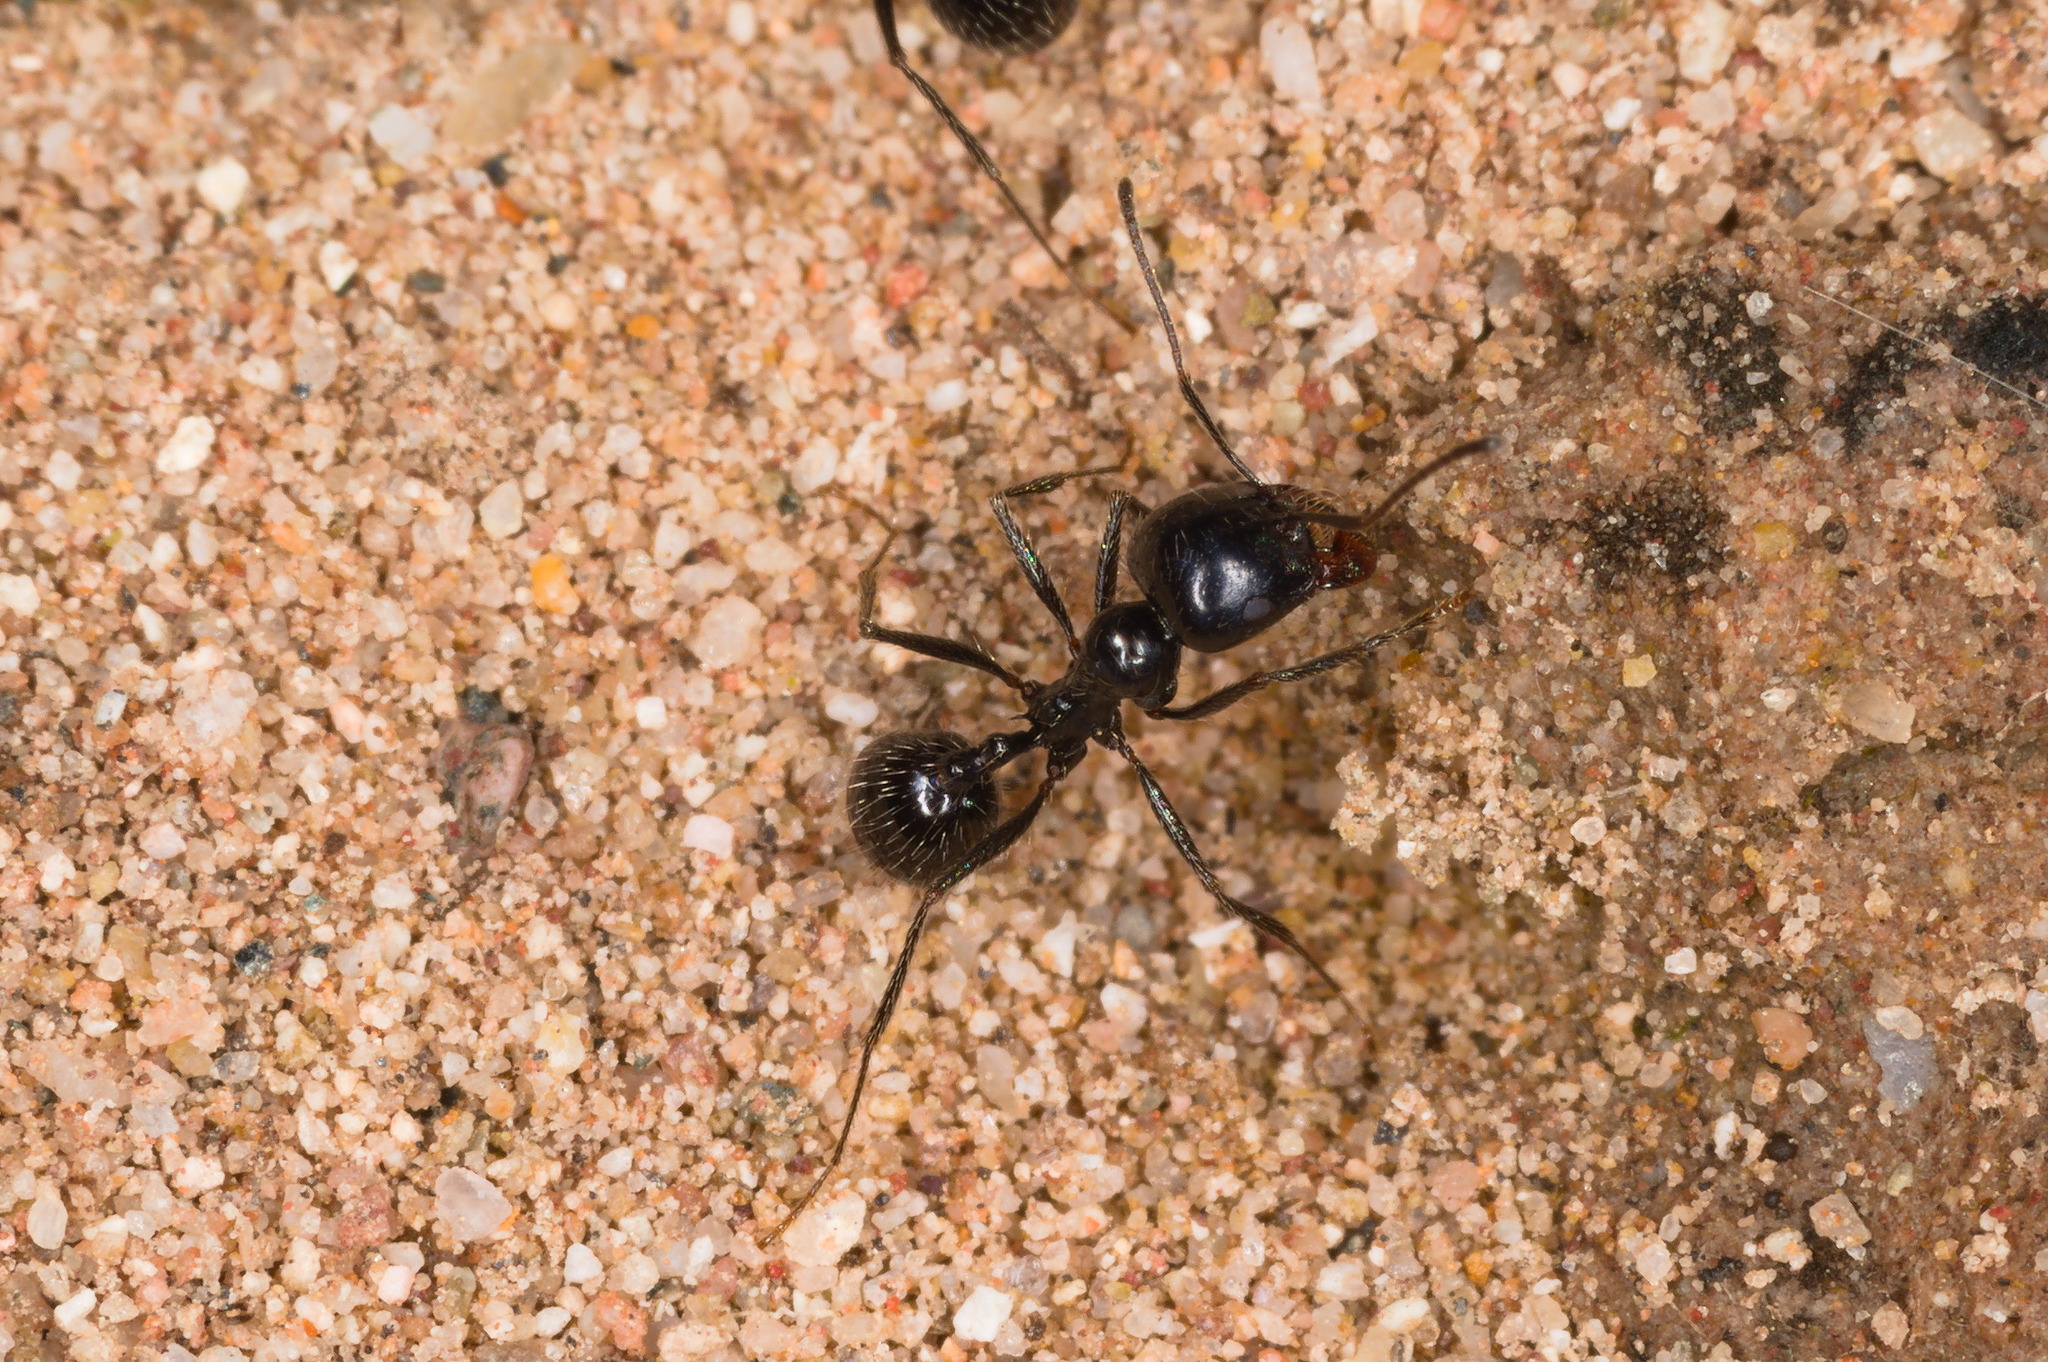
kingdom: Animalia
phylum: Arthropoda
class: Insecta
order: Hymenoptera
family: Formicidae
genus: Messor
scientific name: Messor pergandei
